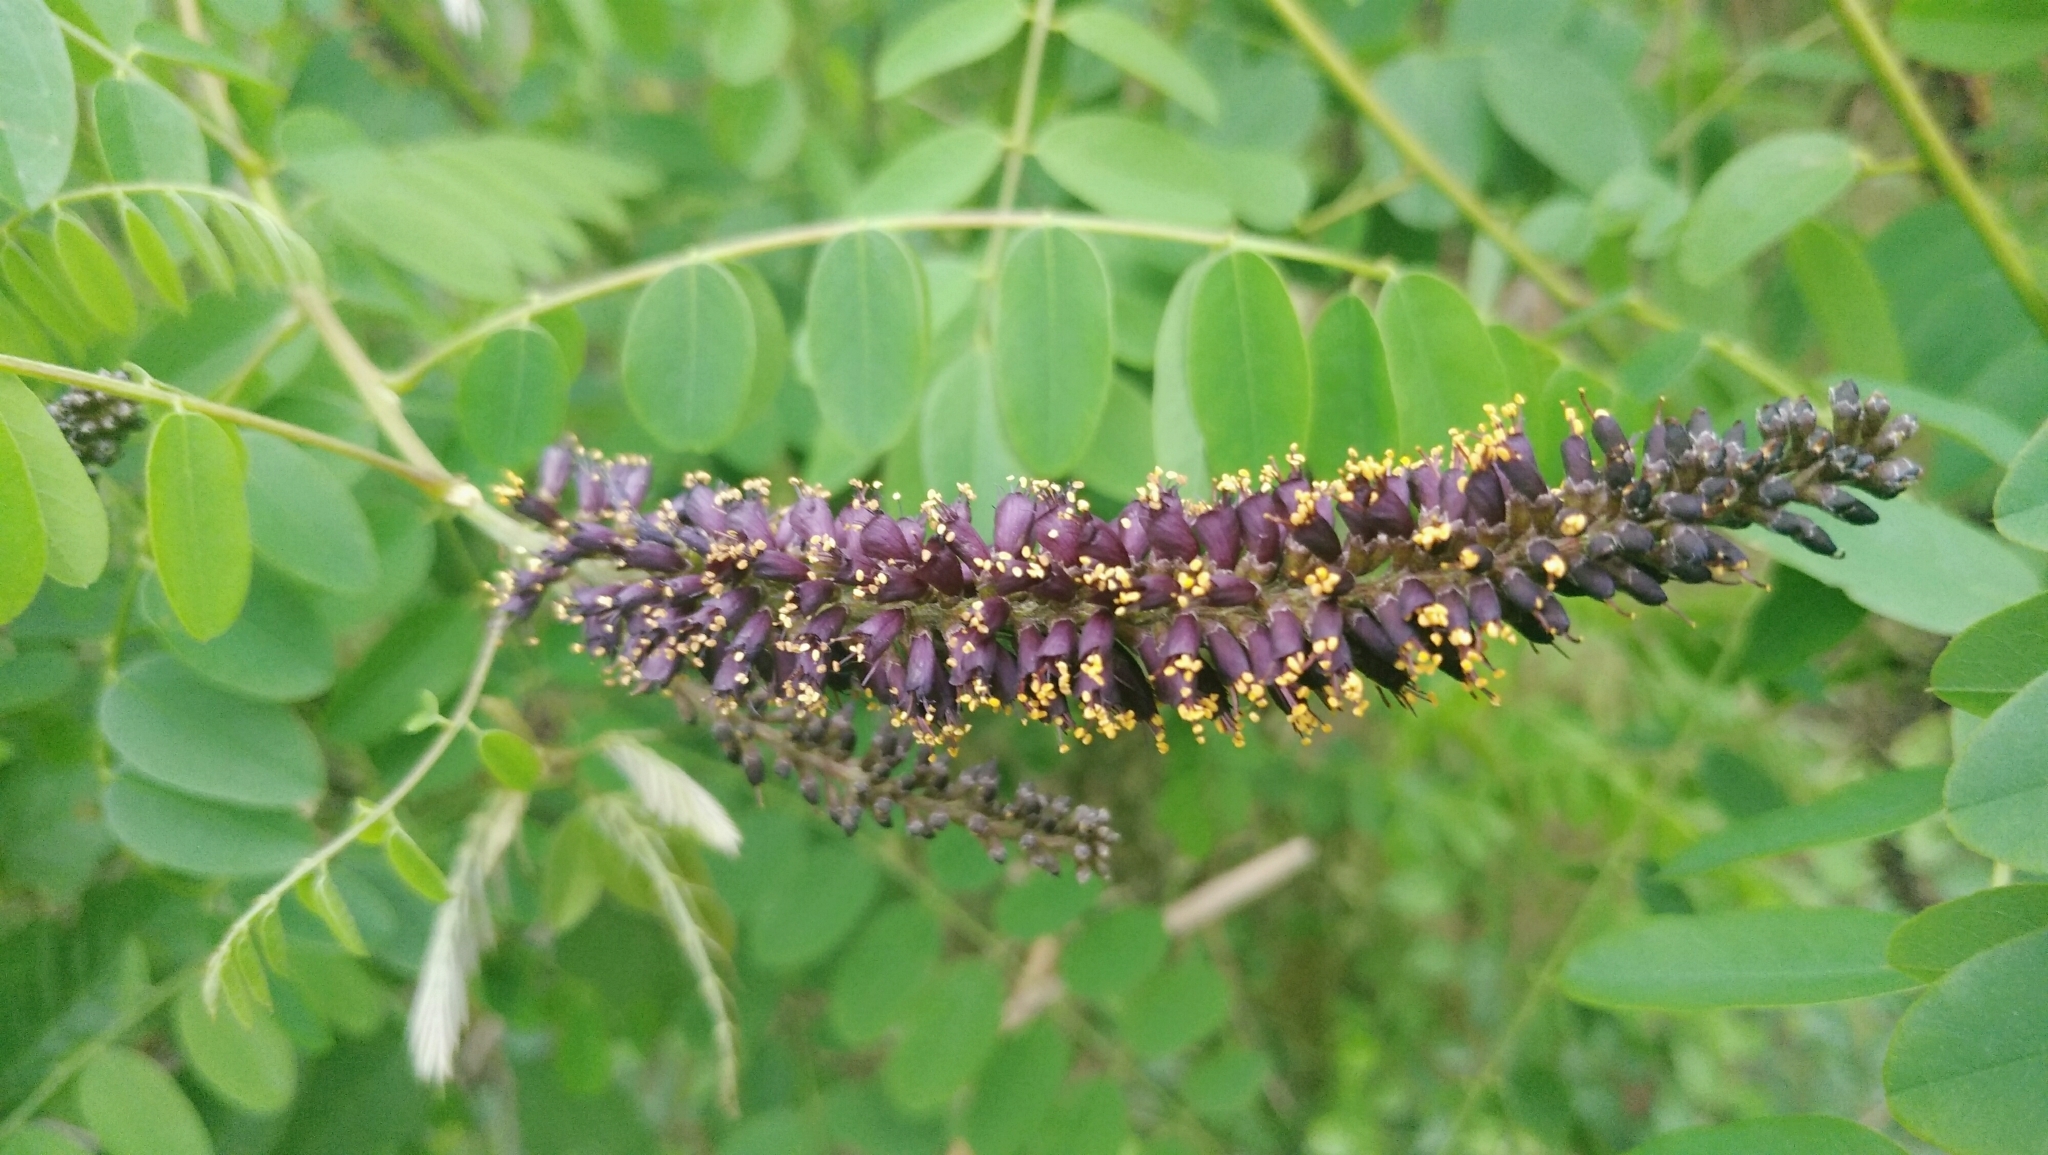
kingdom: Plantae
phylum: Tracheophyta
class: Magnoliopsida
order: Fabales
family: Fabaceae
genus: Amorpha
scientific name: Amorpha fruticosa
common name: False indigo
